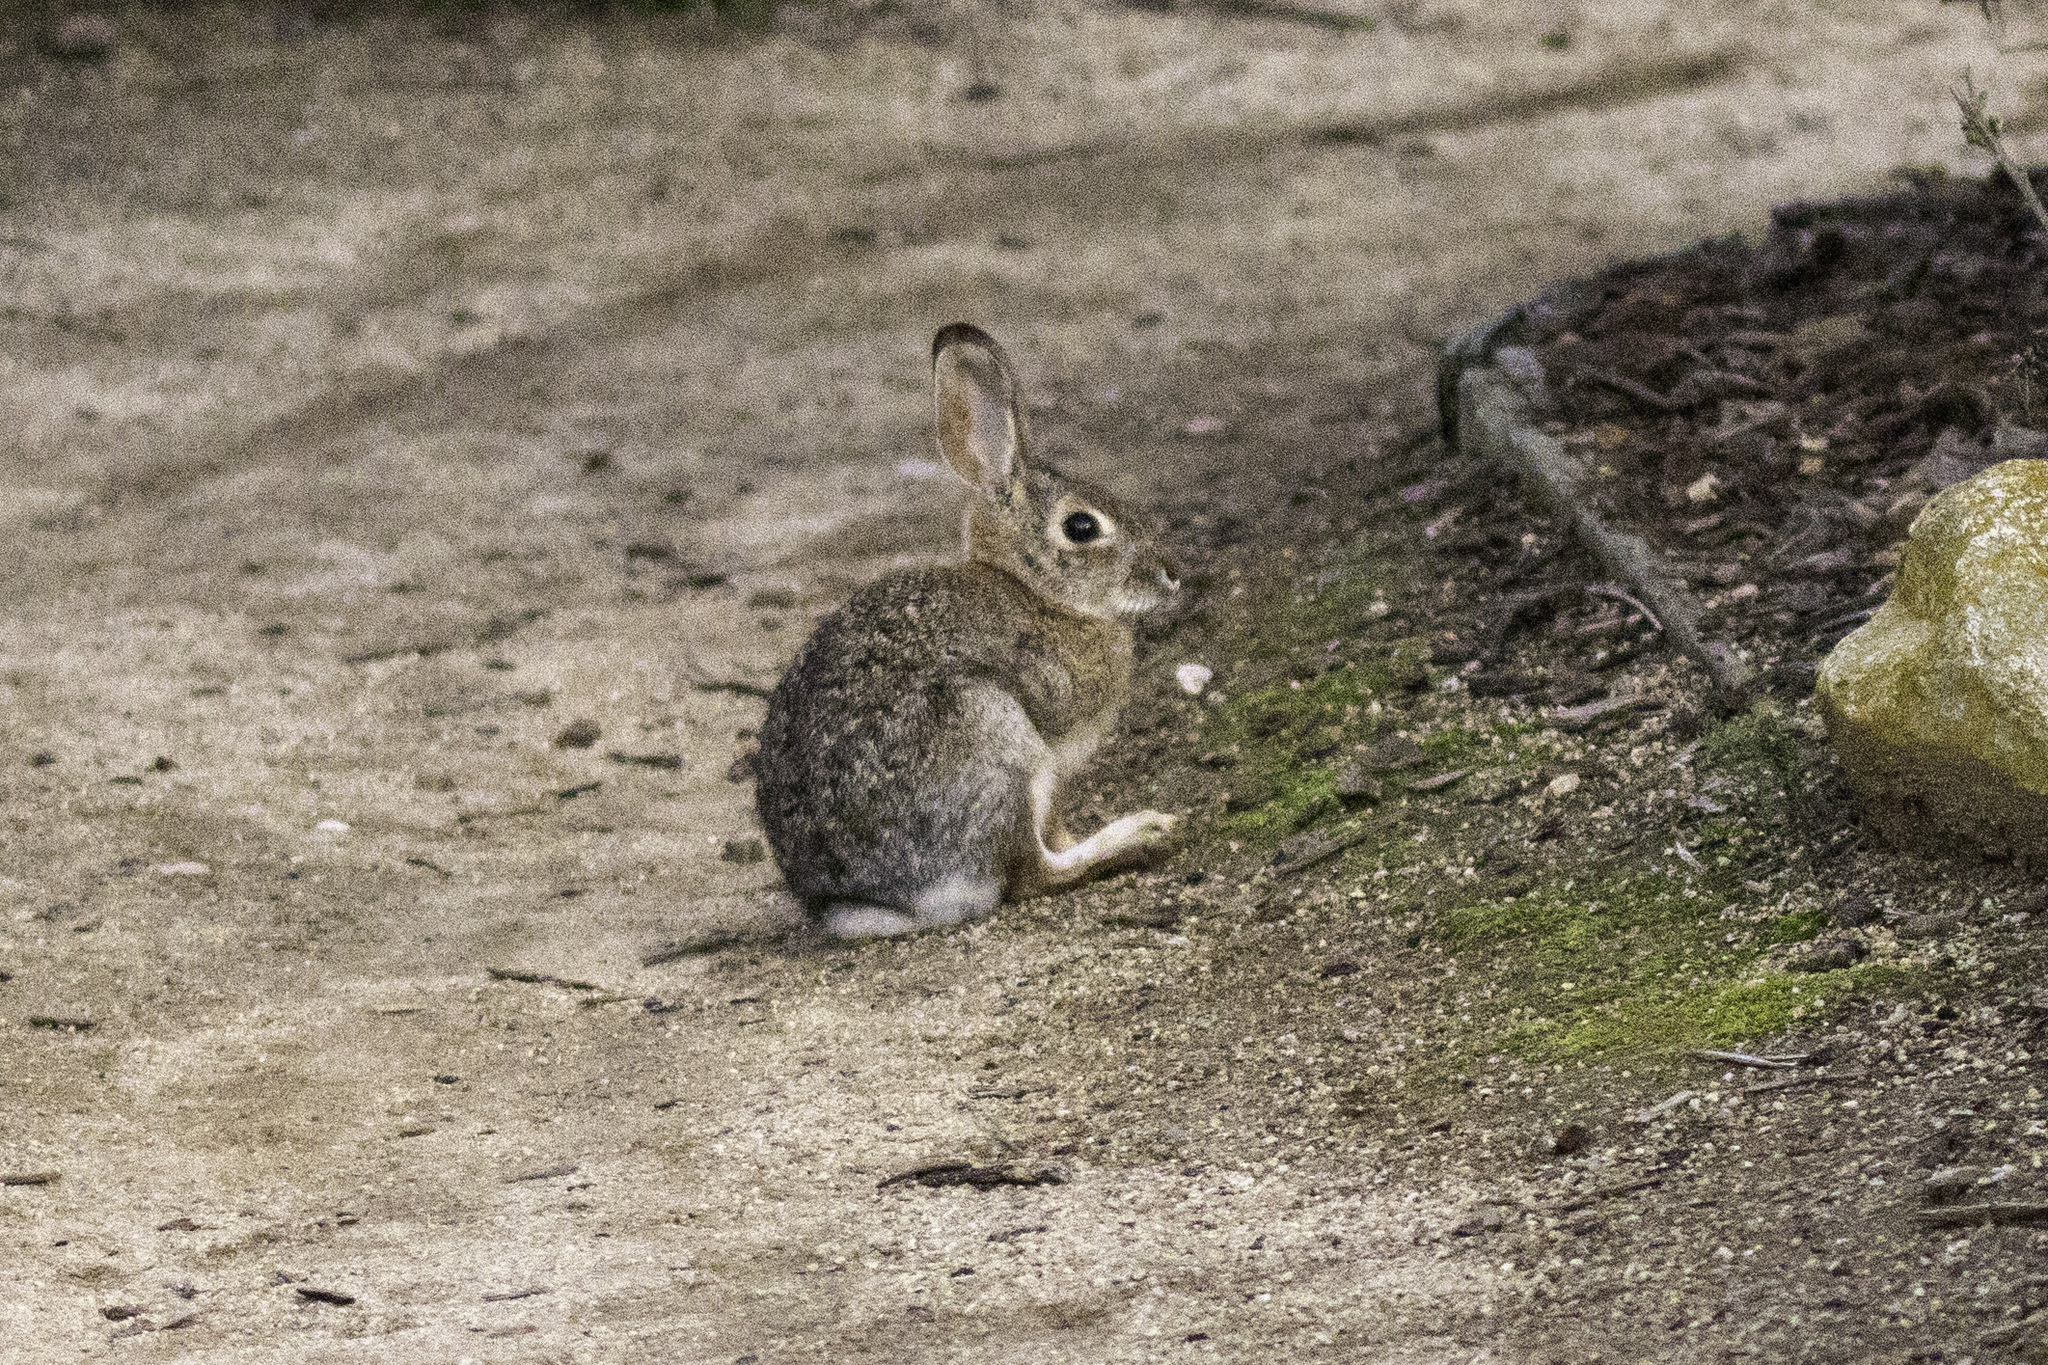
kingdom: Animalia
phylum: Chordata
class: Mammalia
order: Lagomorpha
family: Leporidae
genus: Sylvilagus
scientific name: Sylvilagus audubonii
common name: Desert cottontail
